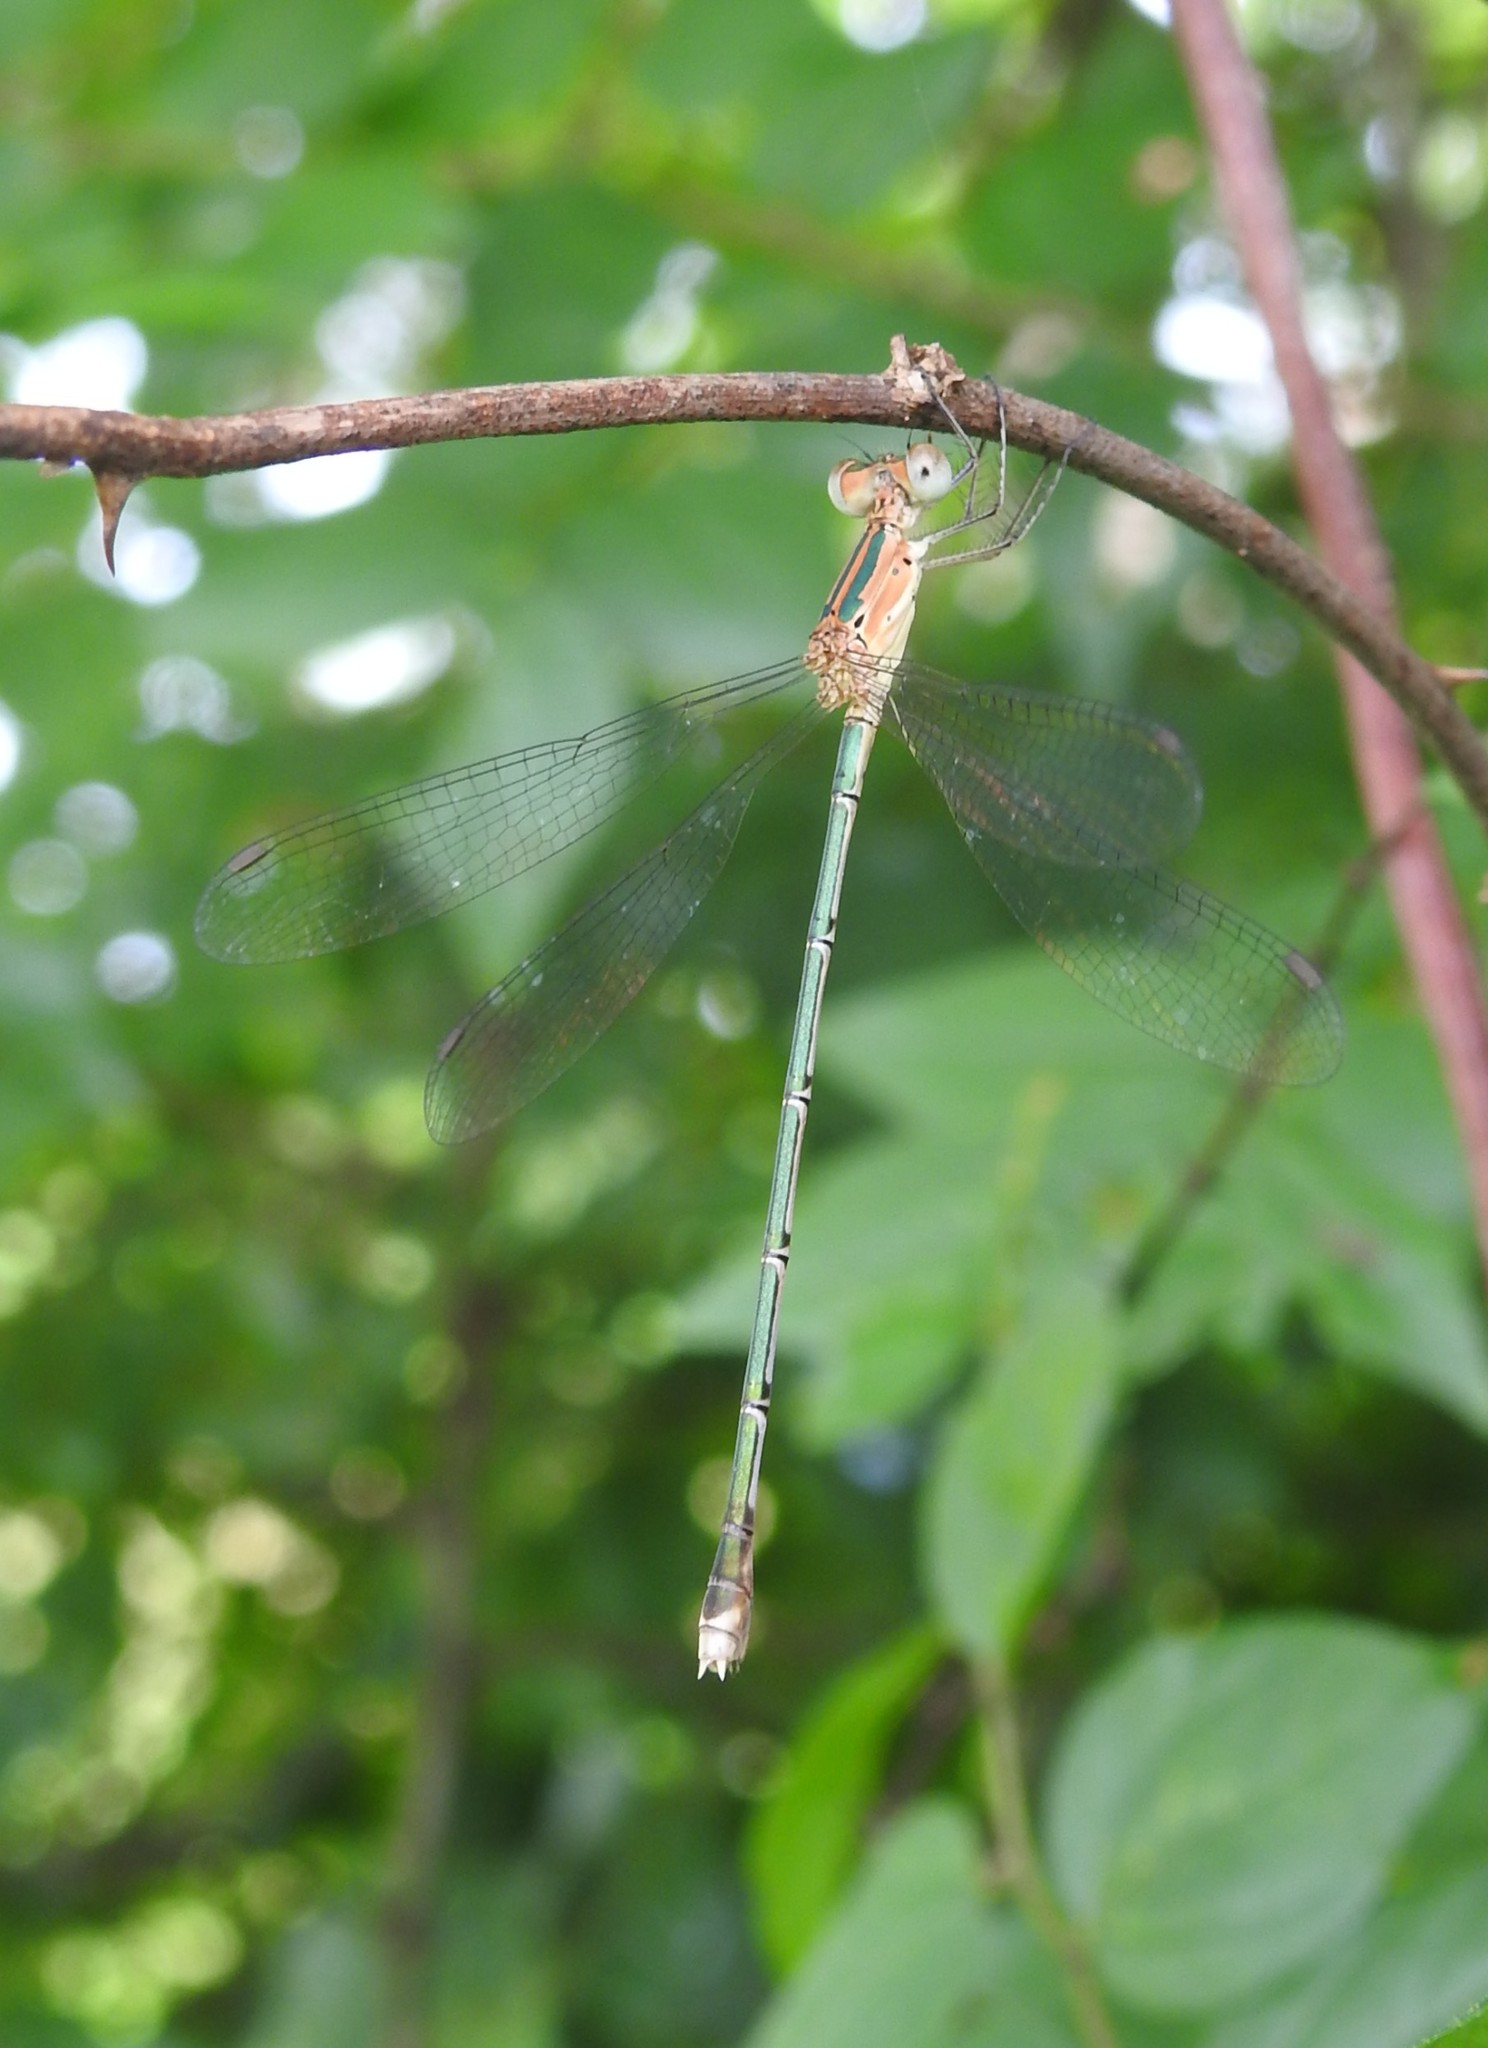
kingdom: Animalia
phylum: Arthropoda
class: Insecta
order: Odonata
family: Lestidae
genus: Lestes
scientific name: Lestes elatus
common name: Emerald spreadwing
